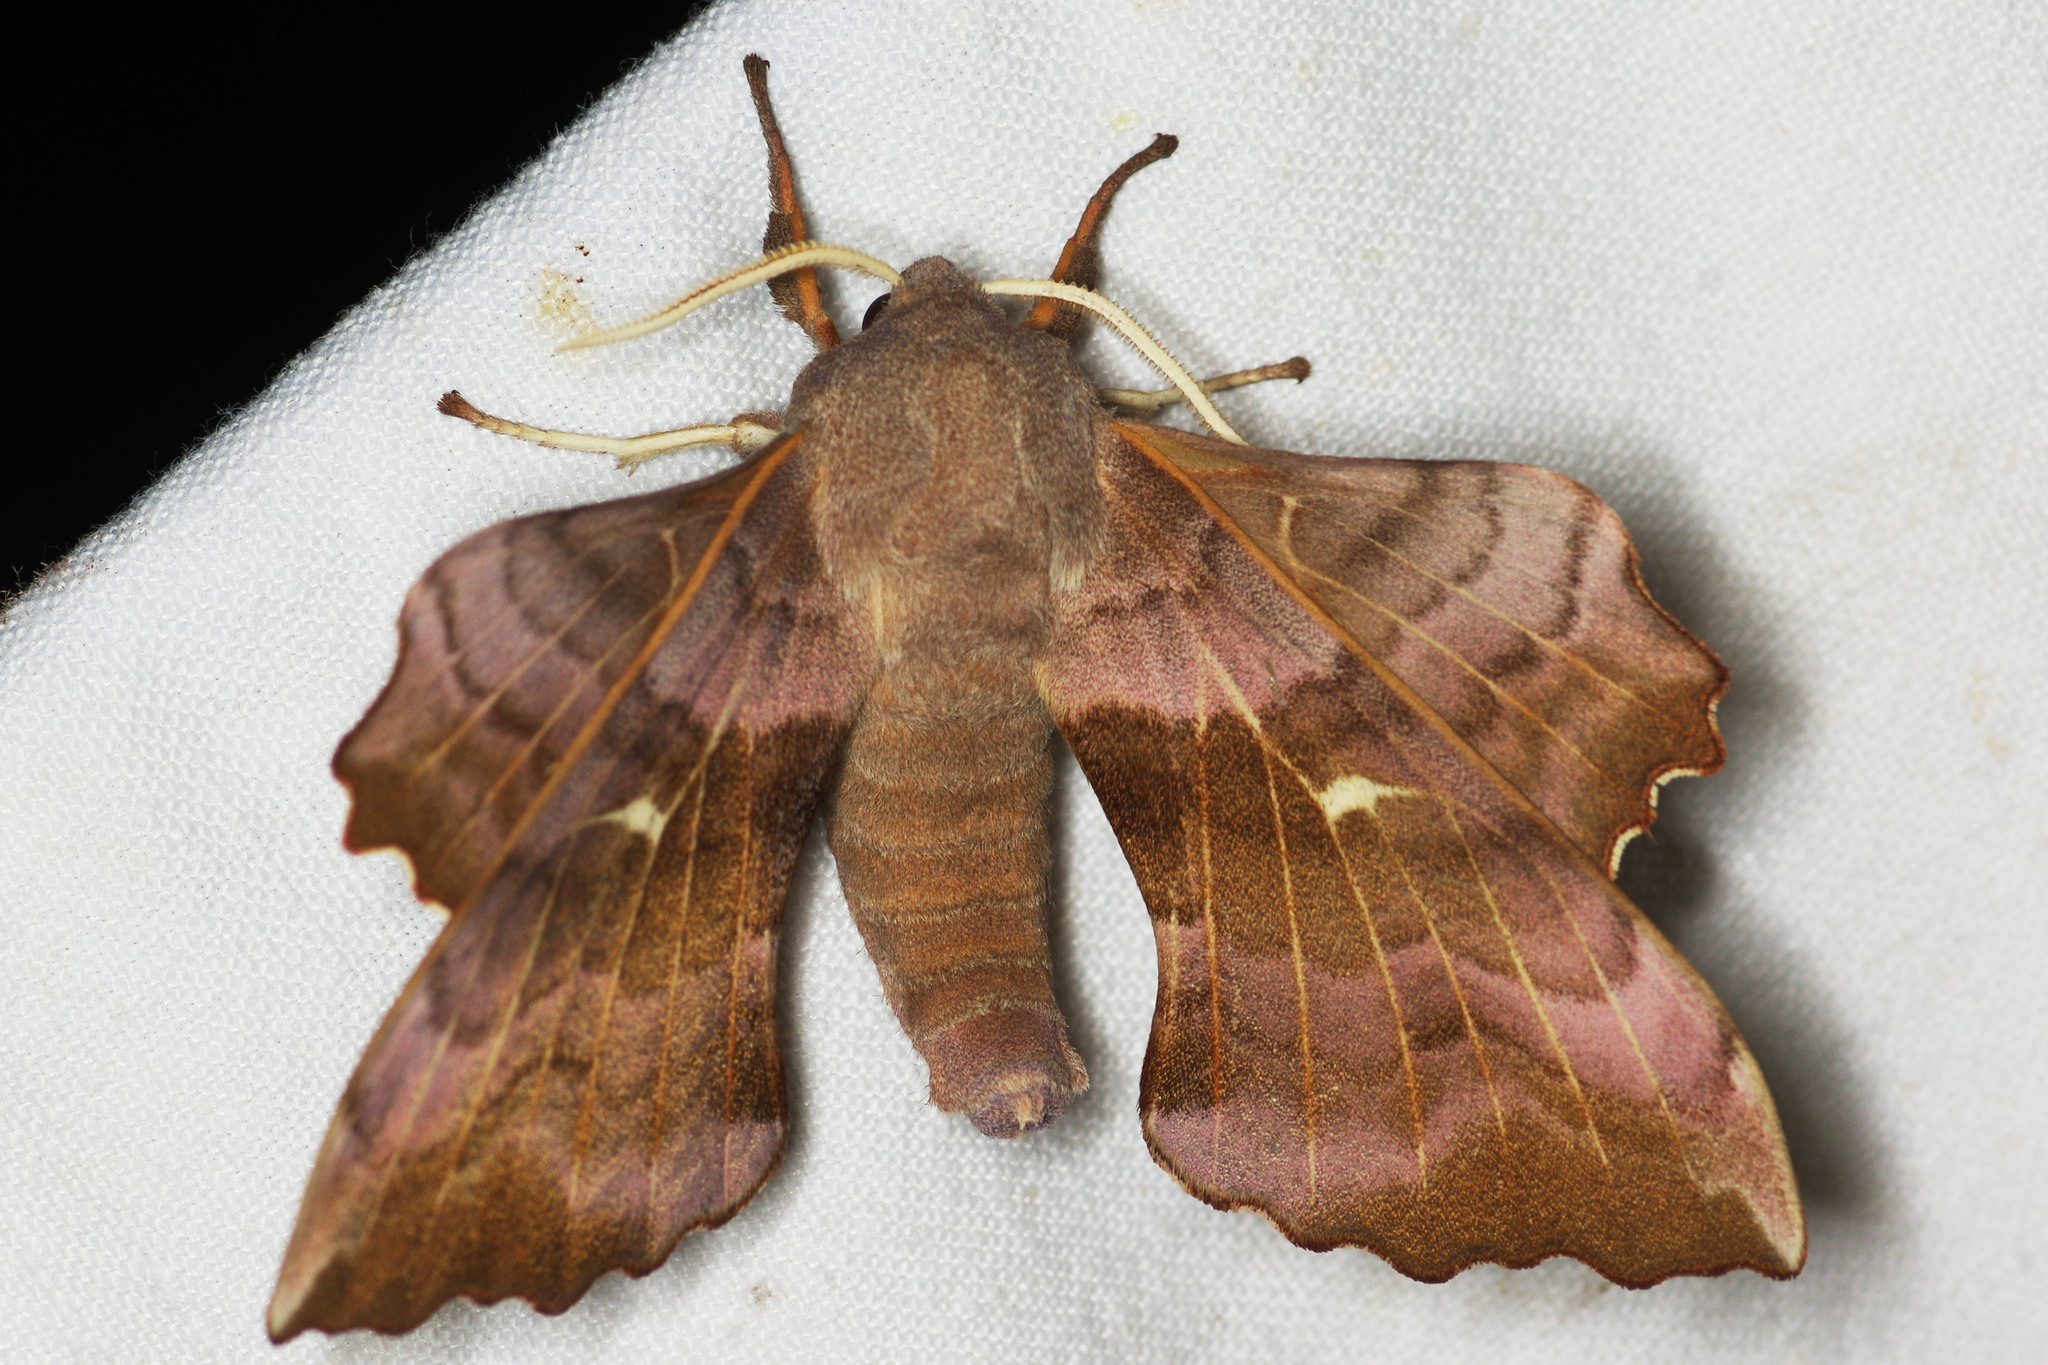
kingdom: Animalia
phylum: Arthropoda
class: Insecta
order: Lepidoptera
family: Sphingidae
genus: Laothoe
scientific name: Laothoe populi
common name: Poplar hawk-moth
